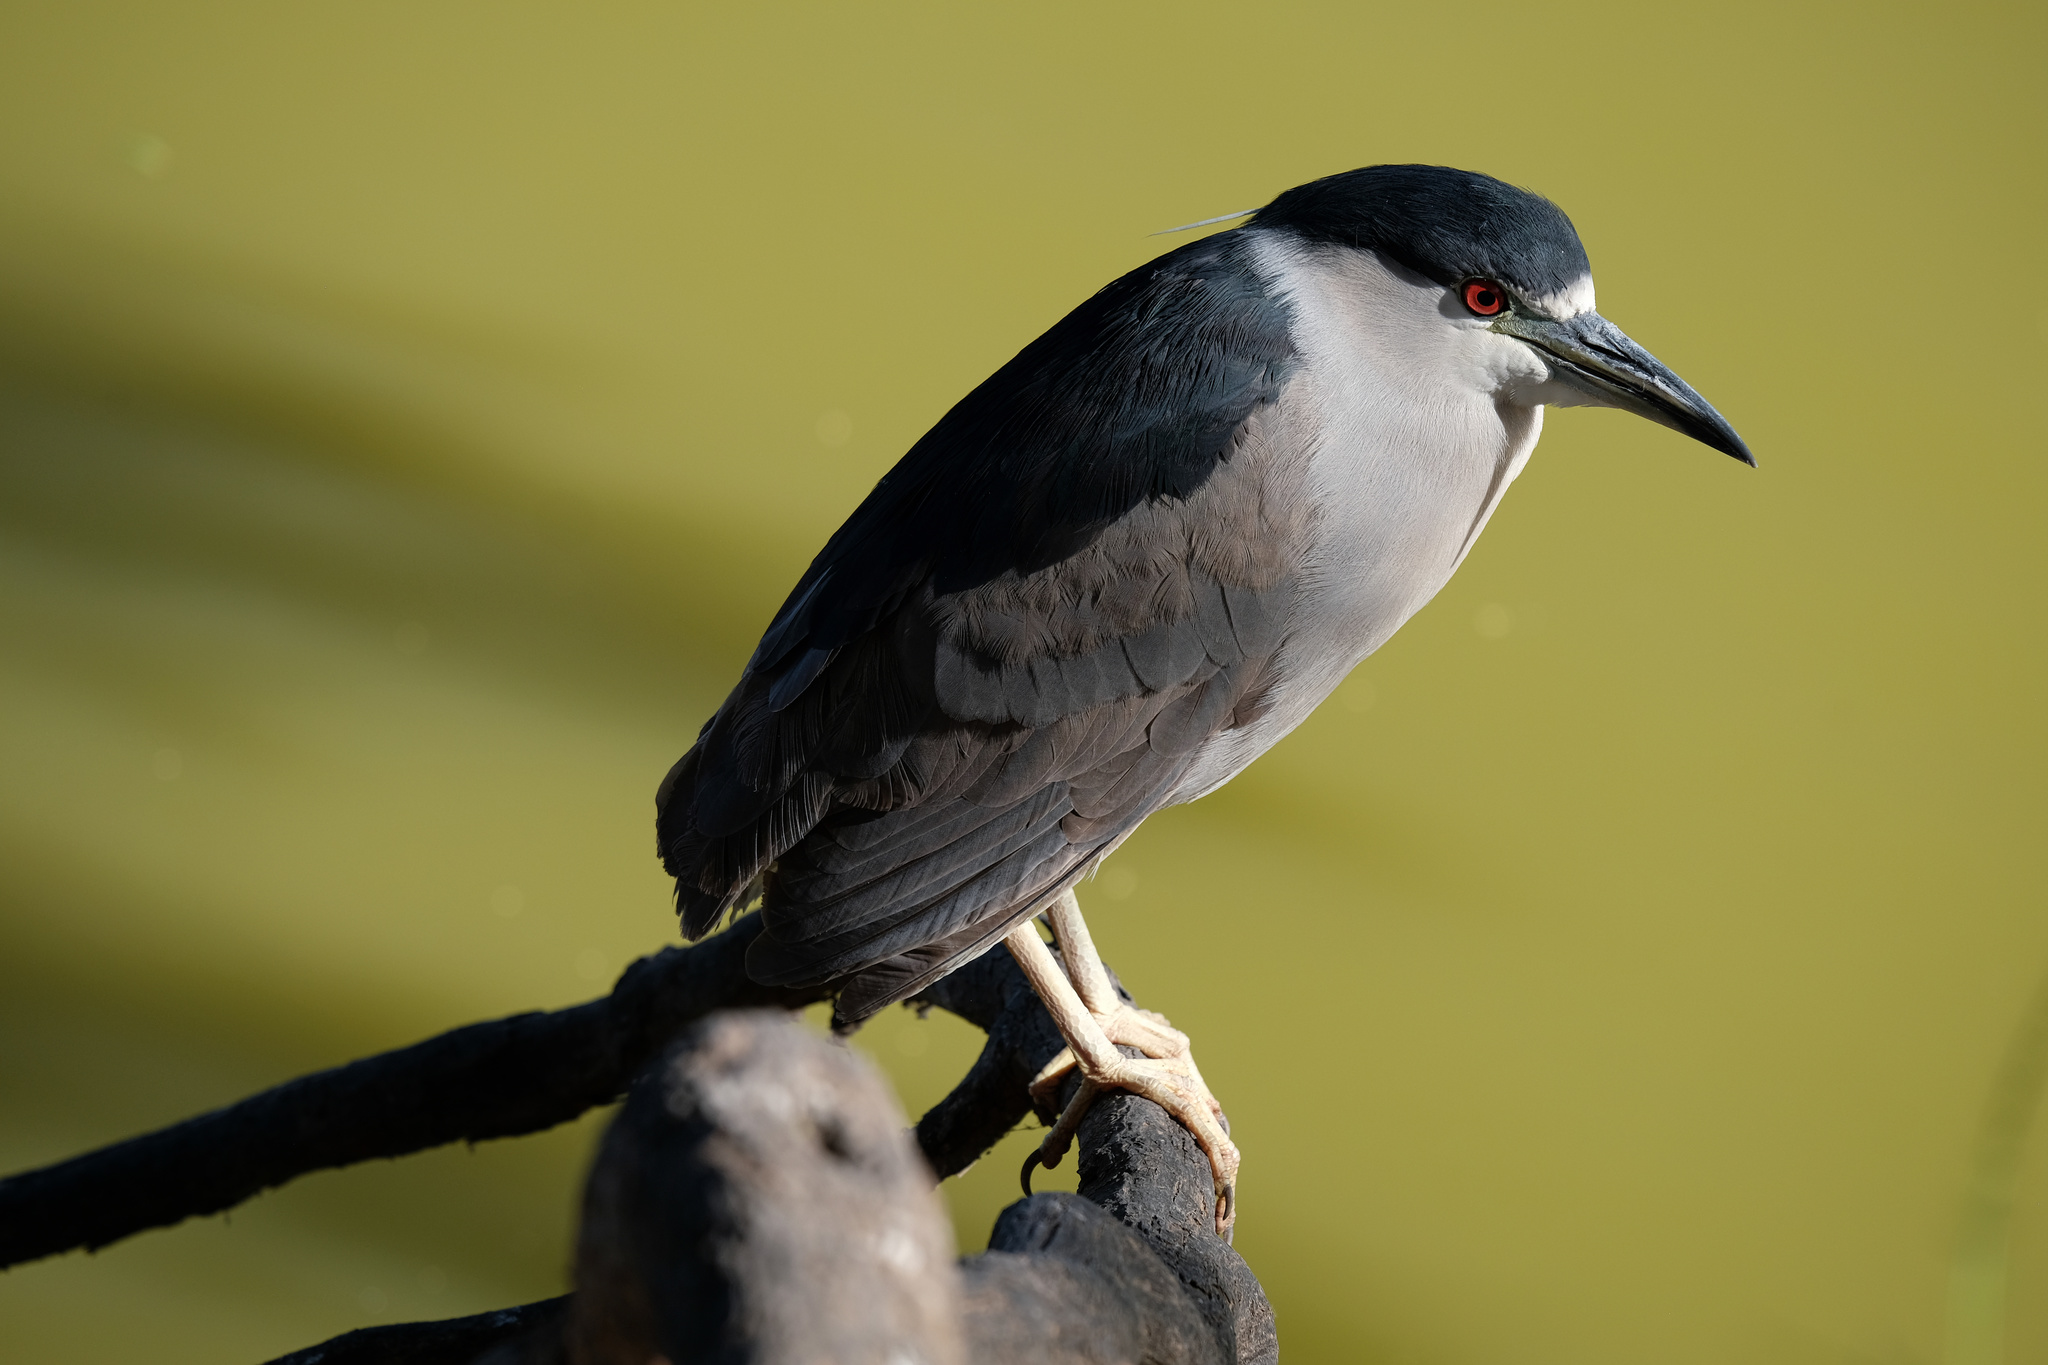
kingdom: Animalia
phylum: Chordata
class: Aves
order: Pelecaniformes
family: Ardeidae
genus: Nycticorax
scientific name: Nycticorax nycticorax
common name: Black-crowned night heron
